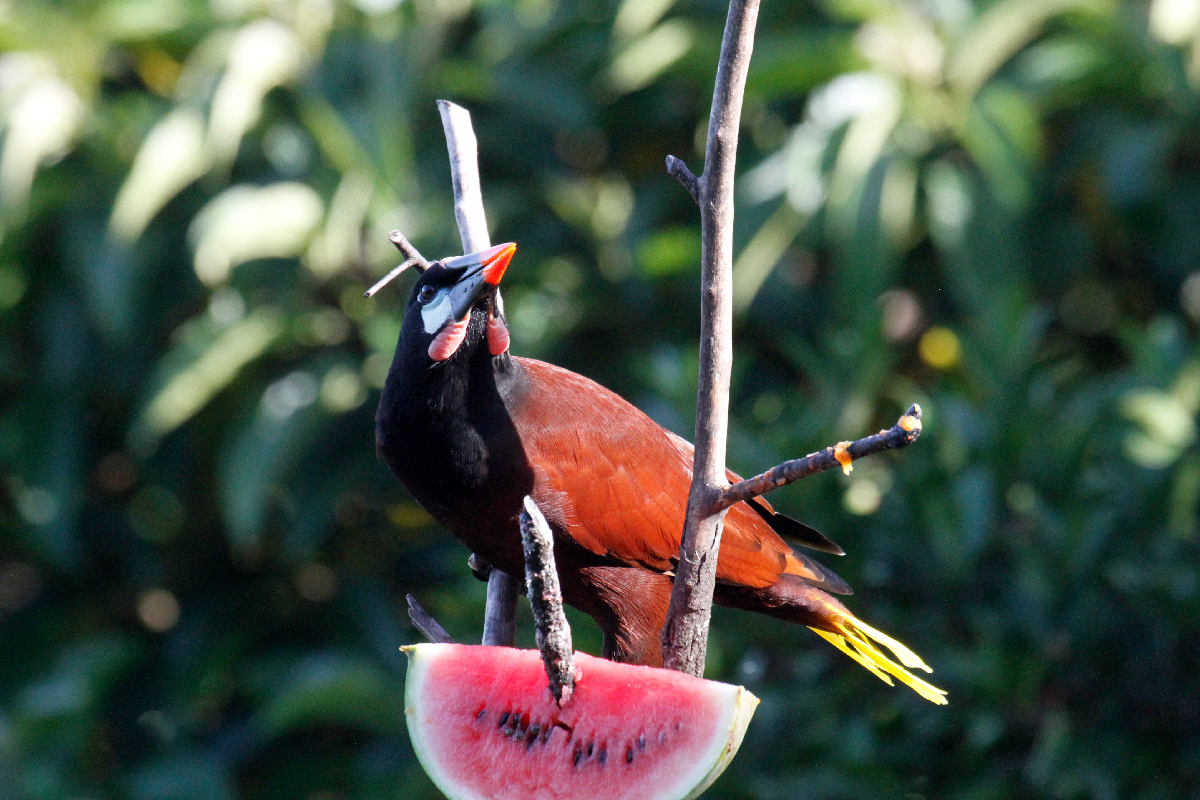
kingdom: Animalia
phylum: Chordata
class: Aves
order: Passeriformes
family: Icteridae
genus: Psarocolius
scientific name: Psarocolius montezuma
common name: Montezuma oropendola
